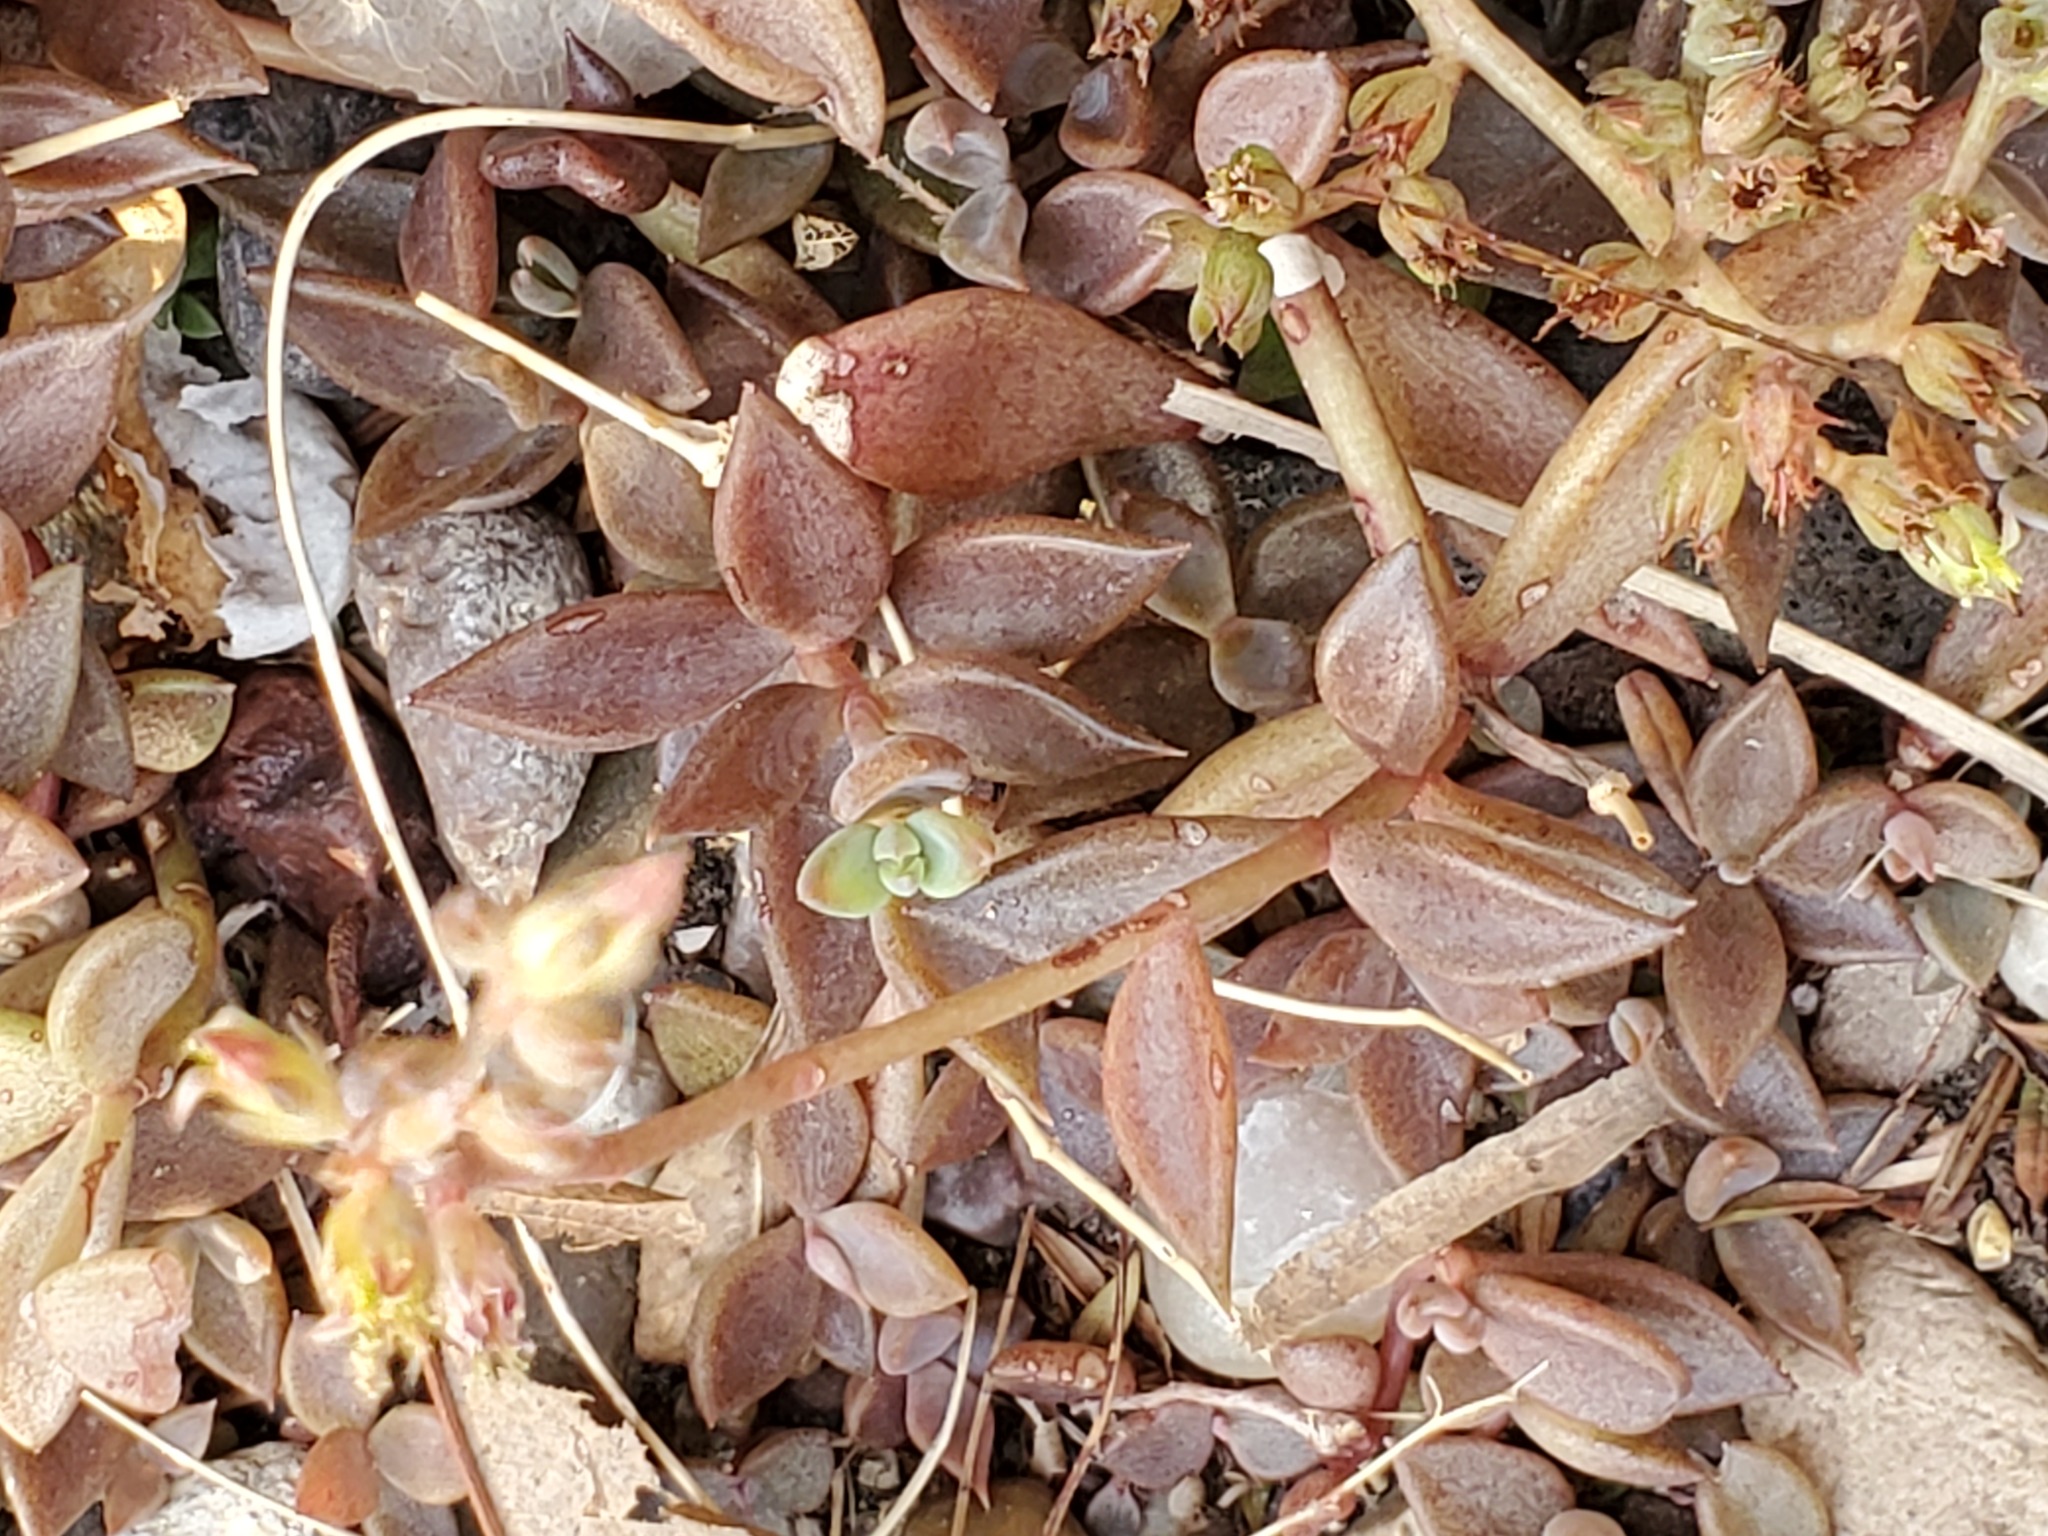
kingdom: Plantae
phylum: Tracheophyta
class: Magnoliopsida
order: Saxifragales
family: Crassulaceae
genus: Lenophyllum
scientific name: Lenophyllum texanum
